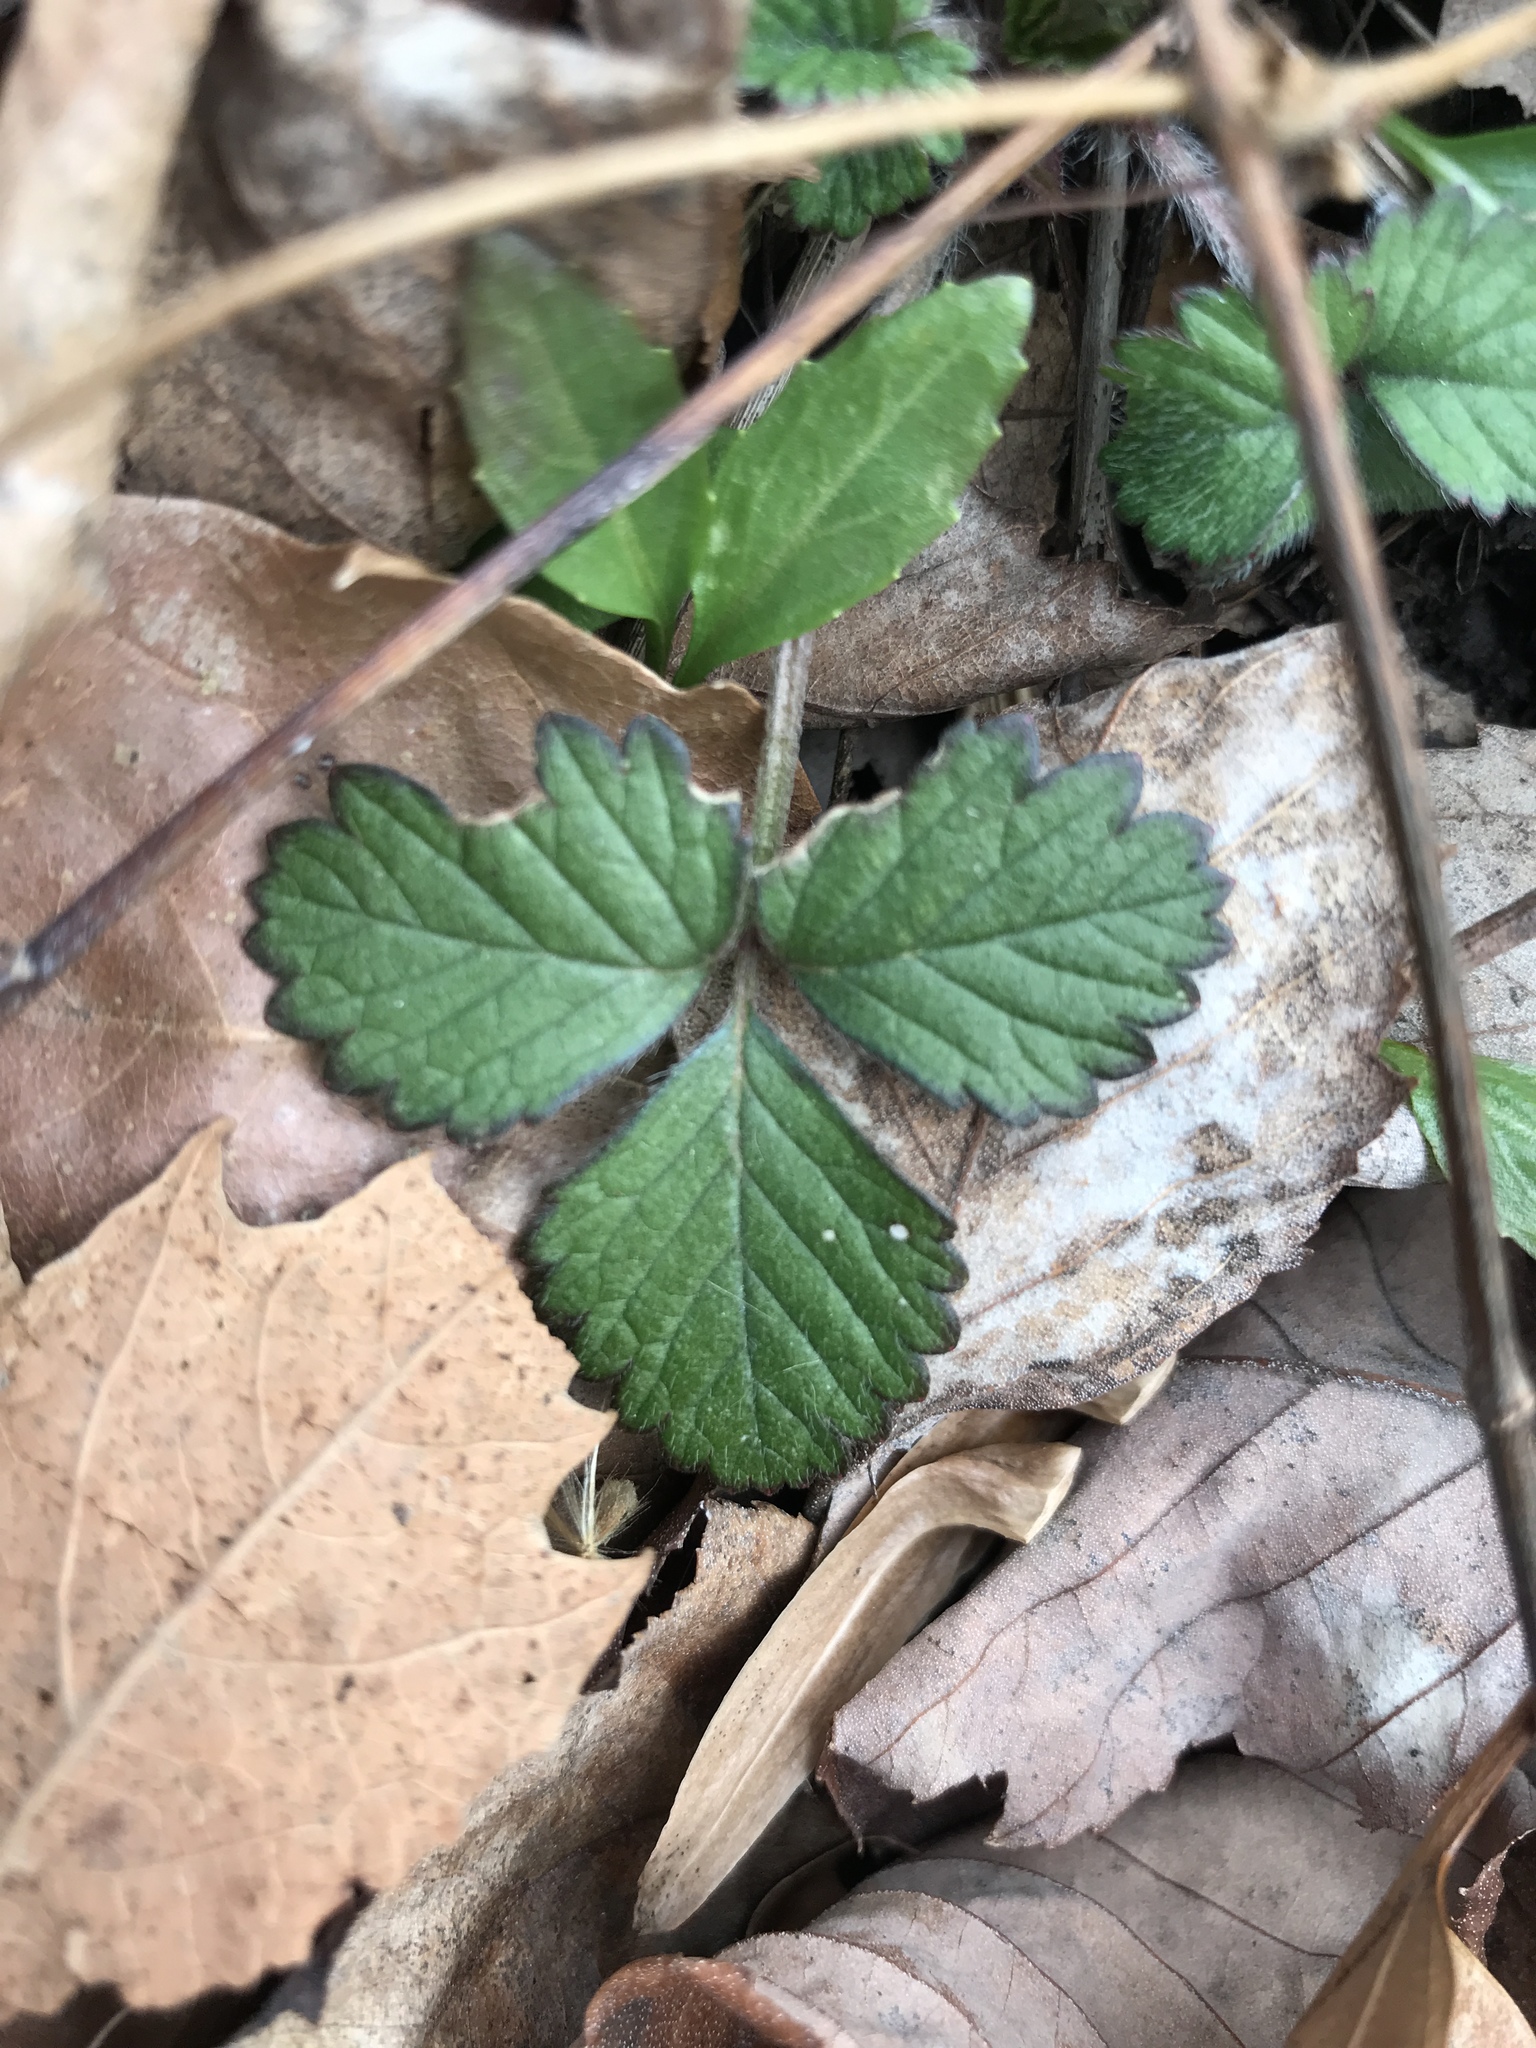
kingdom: Plantae
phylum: Tracheophyta
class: Magnoliopsida
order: Rosales
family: Rosaceae
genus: Potentilla
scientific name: Potentilla indica
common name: Yellow-flowered strawberry
